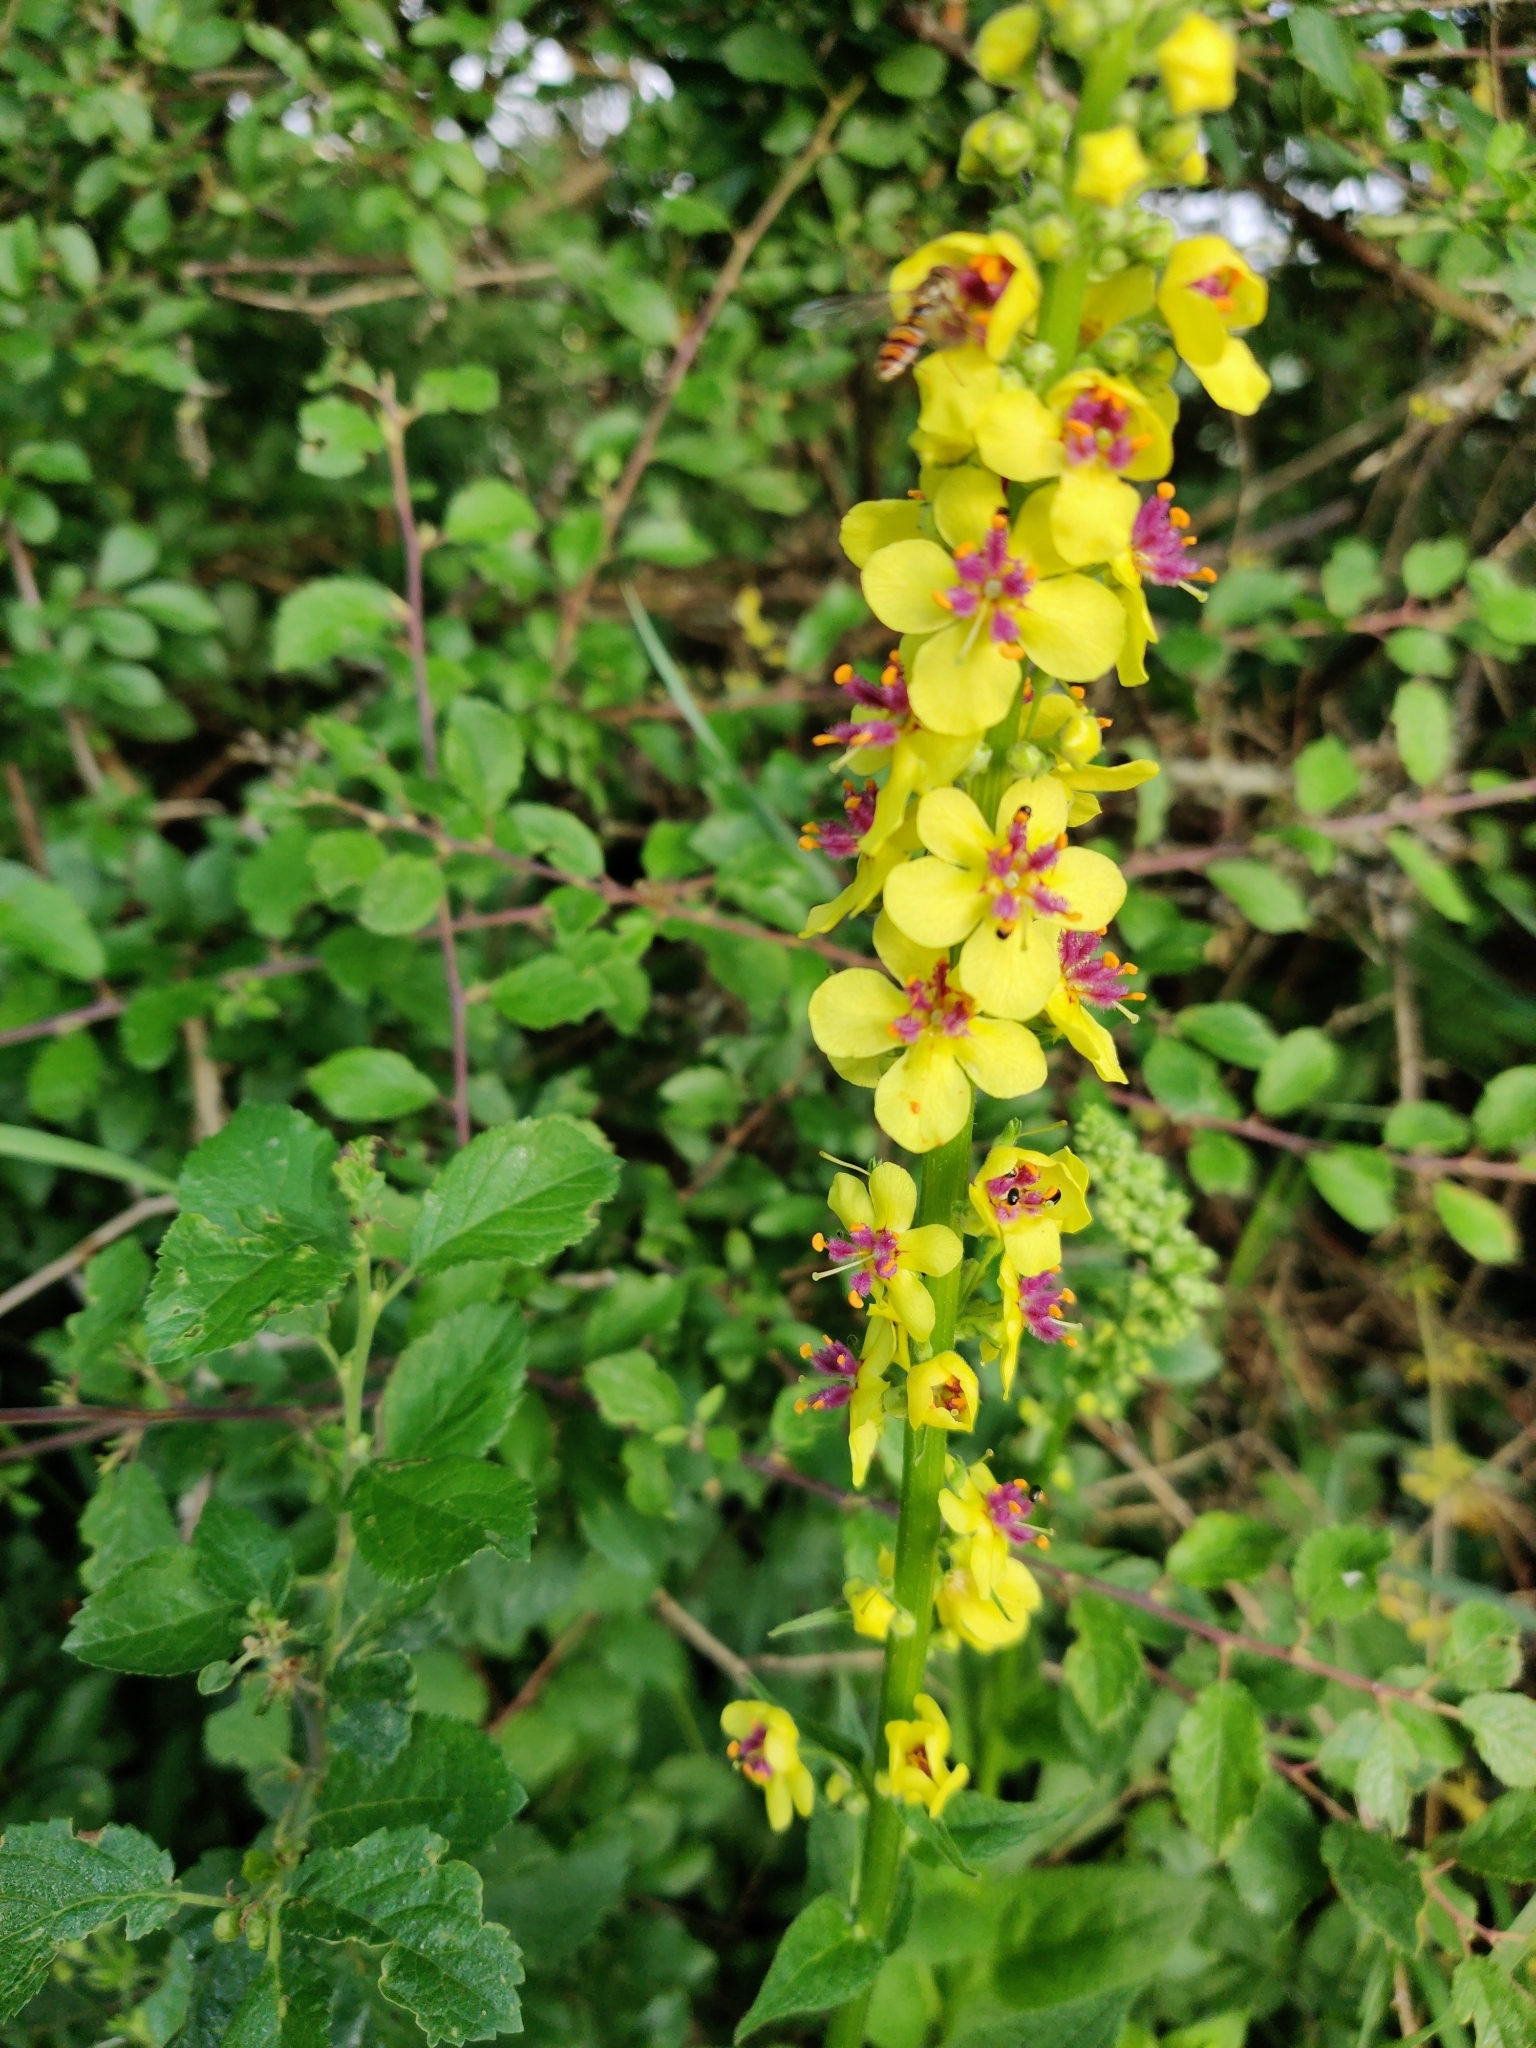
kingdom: Plantae
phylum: Tracheophyta
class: Magnoliopsida
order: Lamiales
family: Scrophulariaceae
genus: Verbascum
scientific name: Verbascum nigrum
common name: Dark mullein
